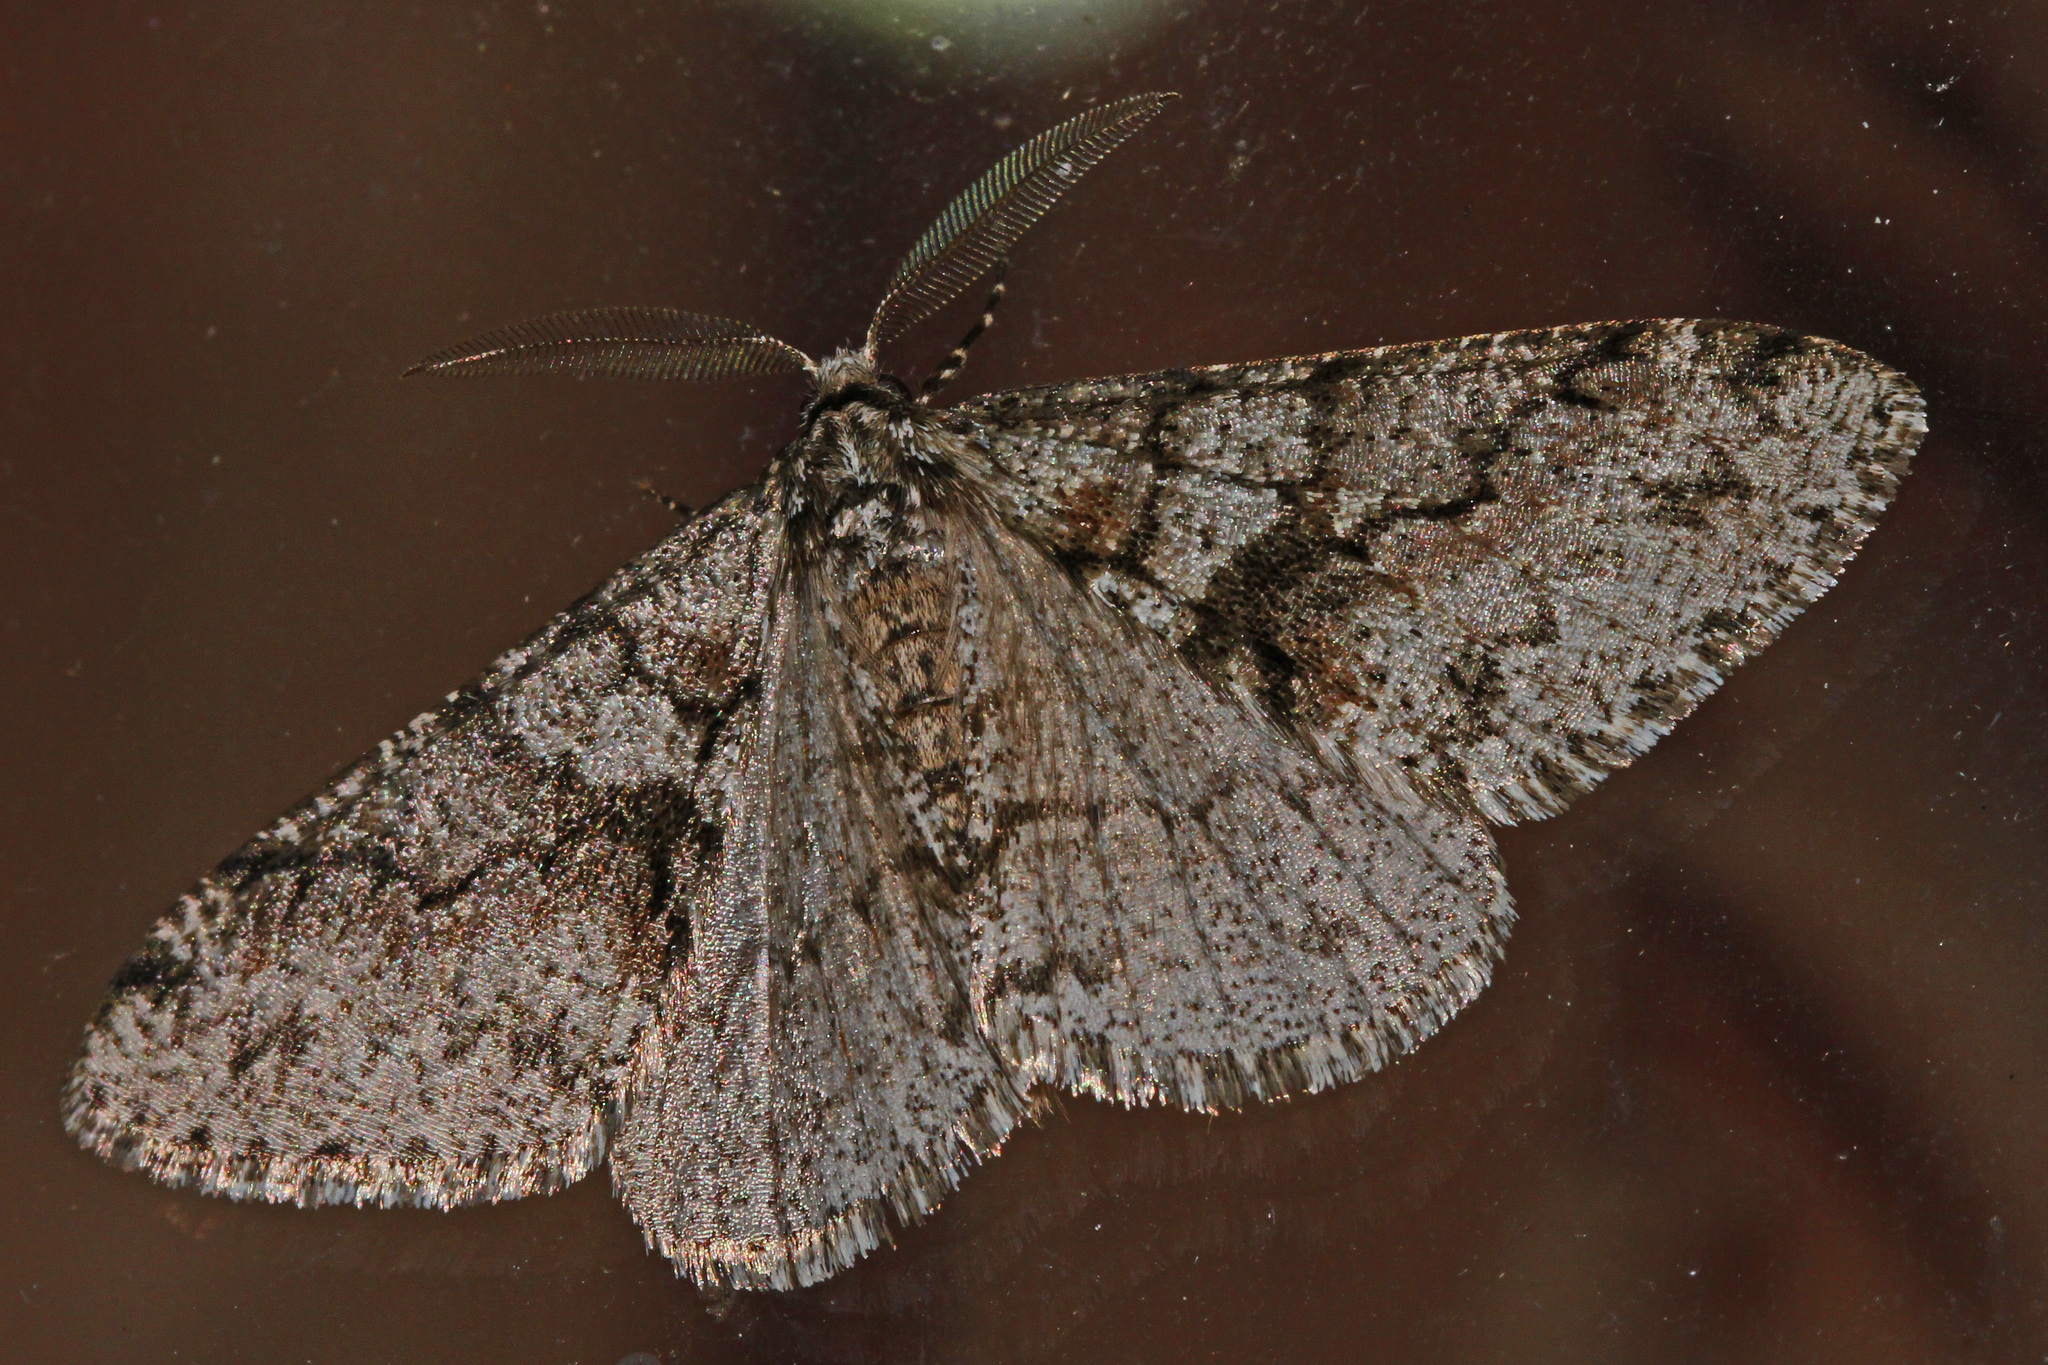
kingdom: Animalia
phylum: Arthropoda
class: Insecta
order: Lepidoptera
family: Geometridae
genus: Phigalia
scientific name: Phigalia denticulata
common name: Toothed phigalia
